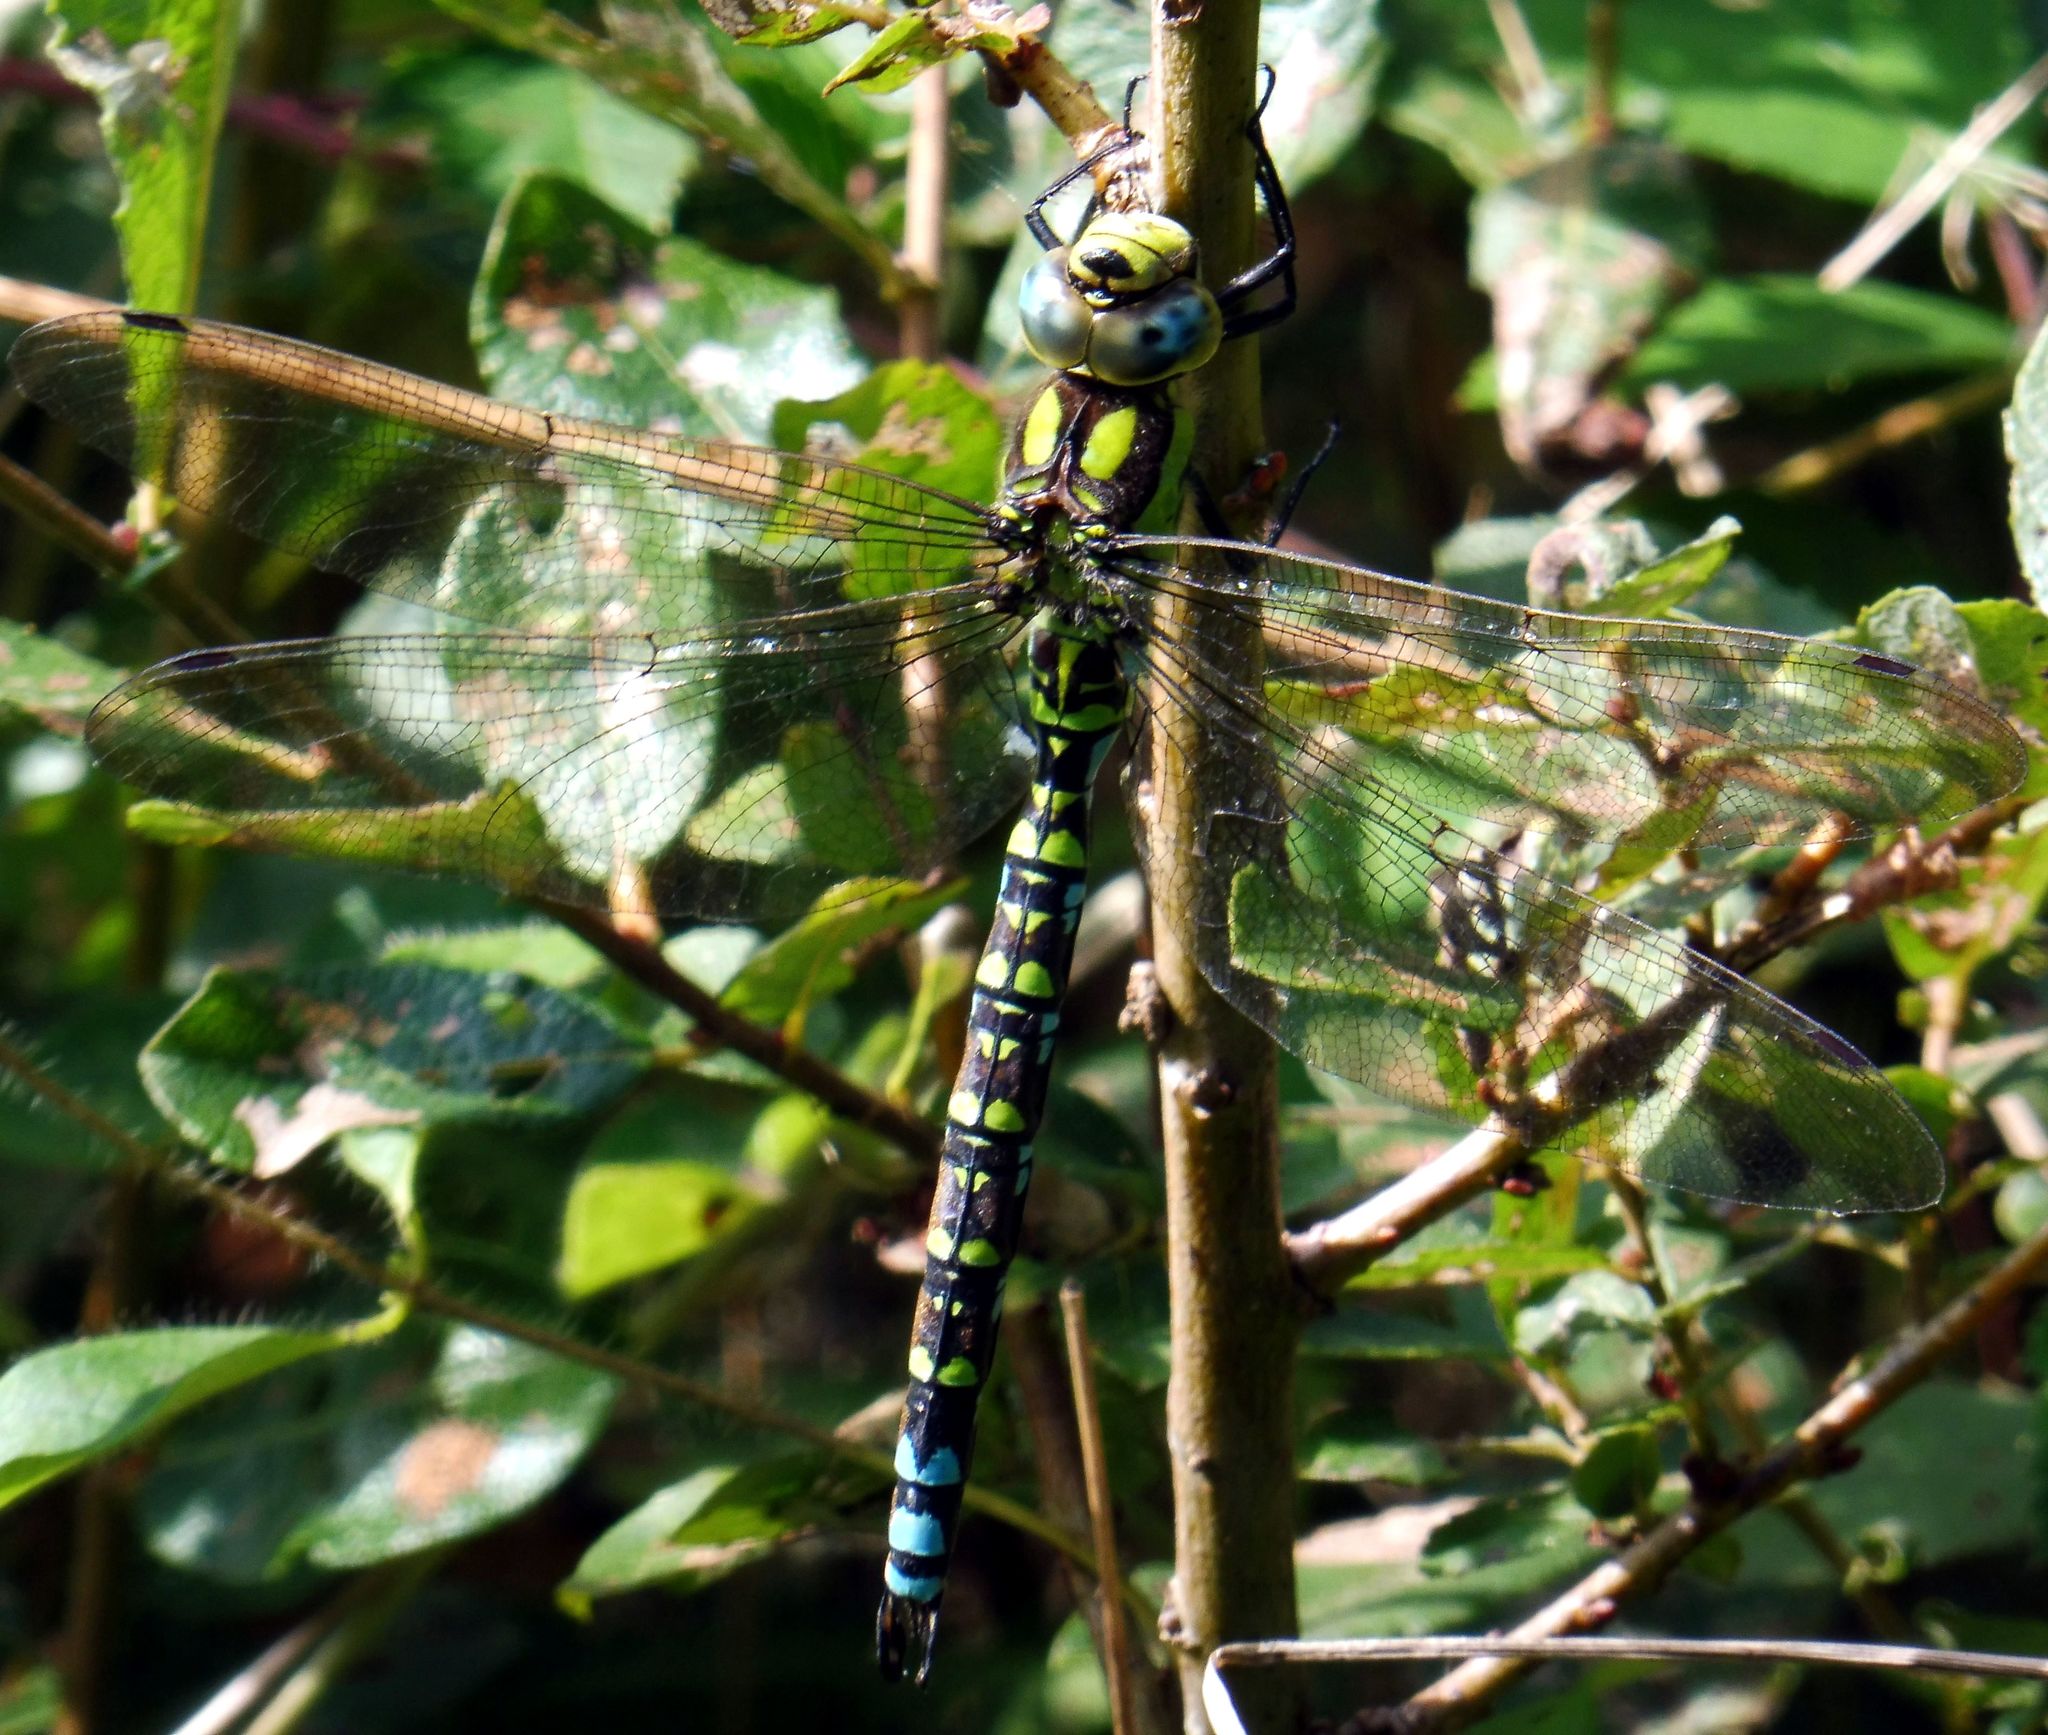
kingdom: Animalia
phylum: Arthropoda
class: Insecta
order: Odonata
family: Aeshnidae
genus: Aeshna
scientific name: Aeshna cyanea
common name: Southern hawker
